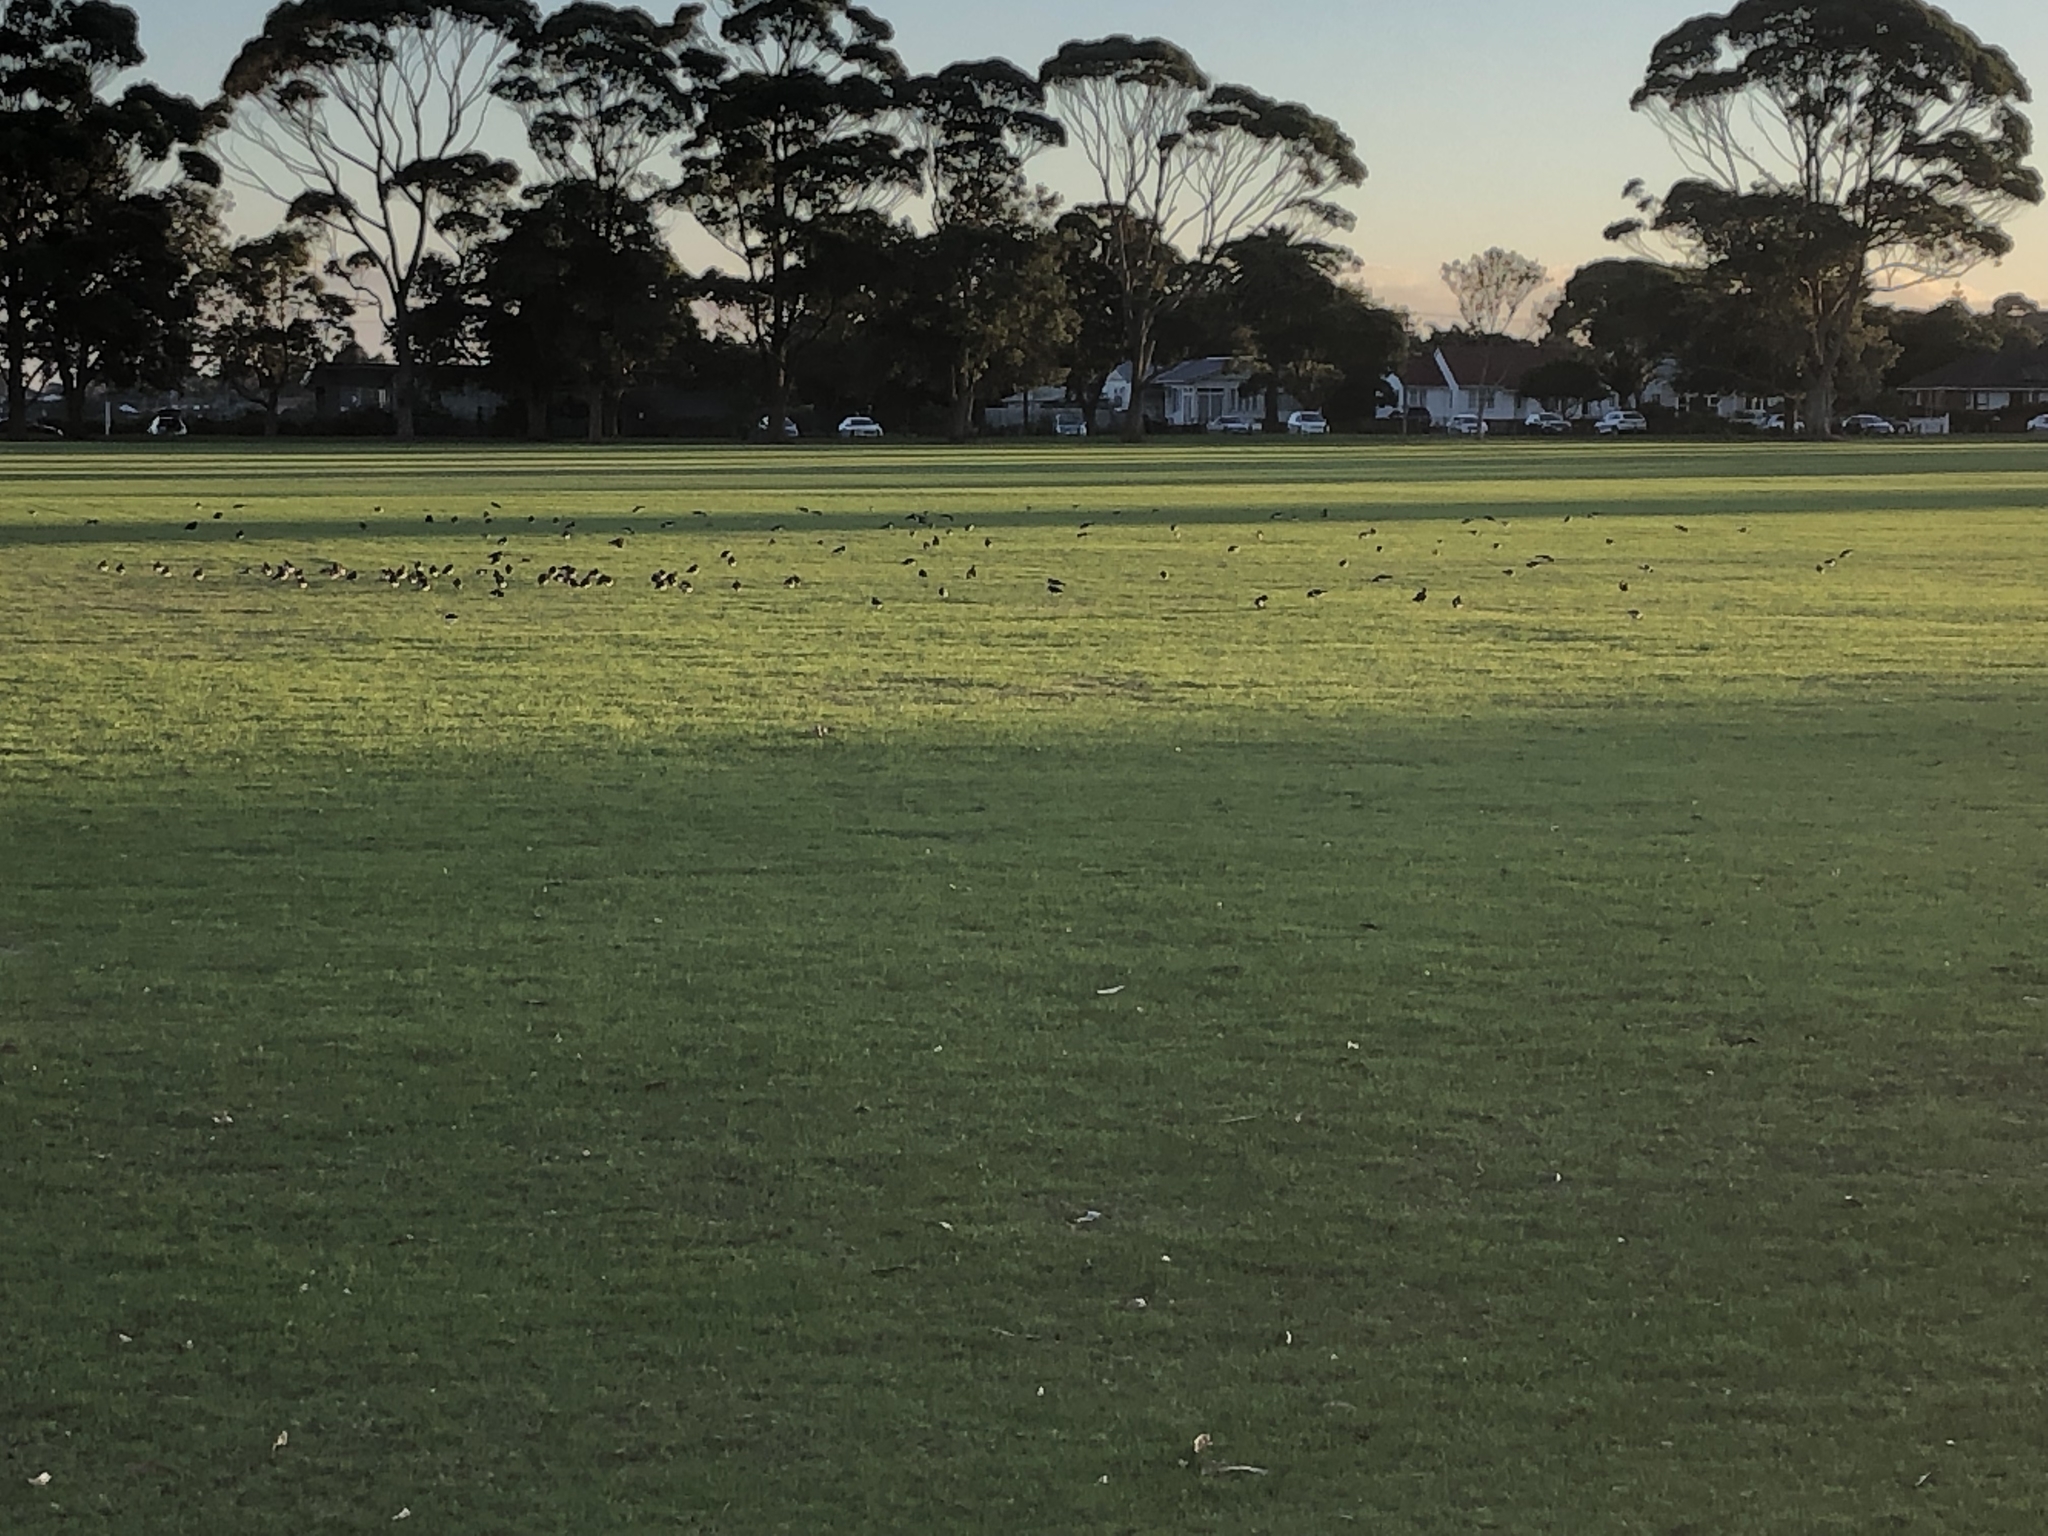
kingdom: Animalia
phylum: Chordata
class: Aves
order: Charadriiformes
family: Haematopodidae
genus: Haematopus
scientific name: Haematopus finschi
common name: South island oystercatcher
